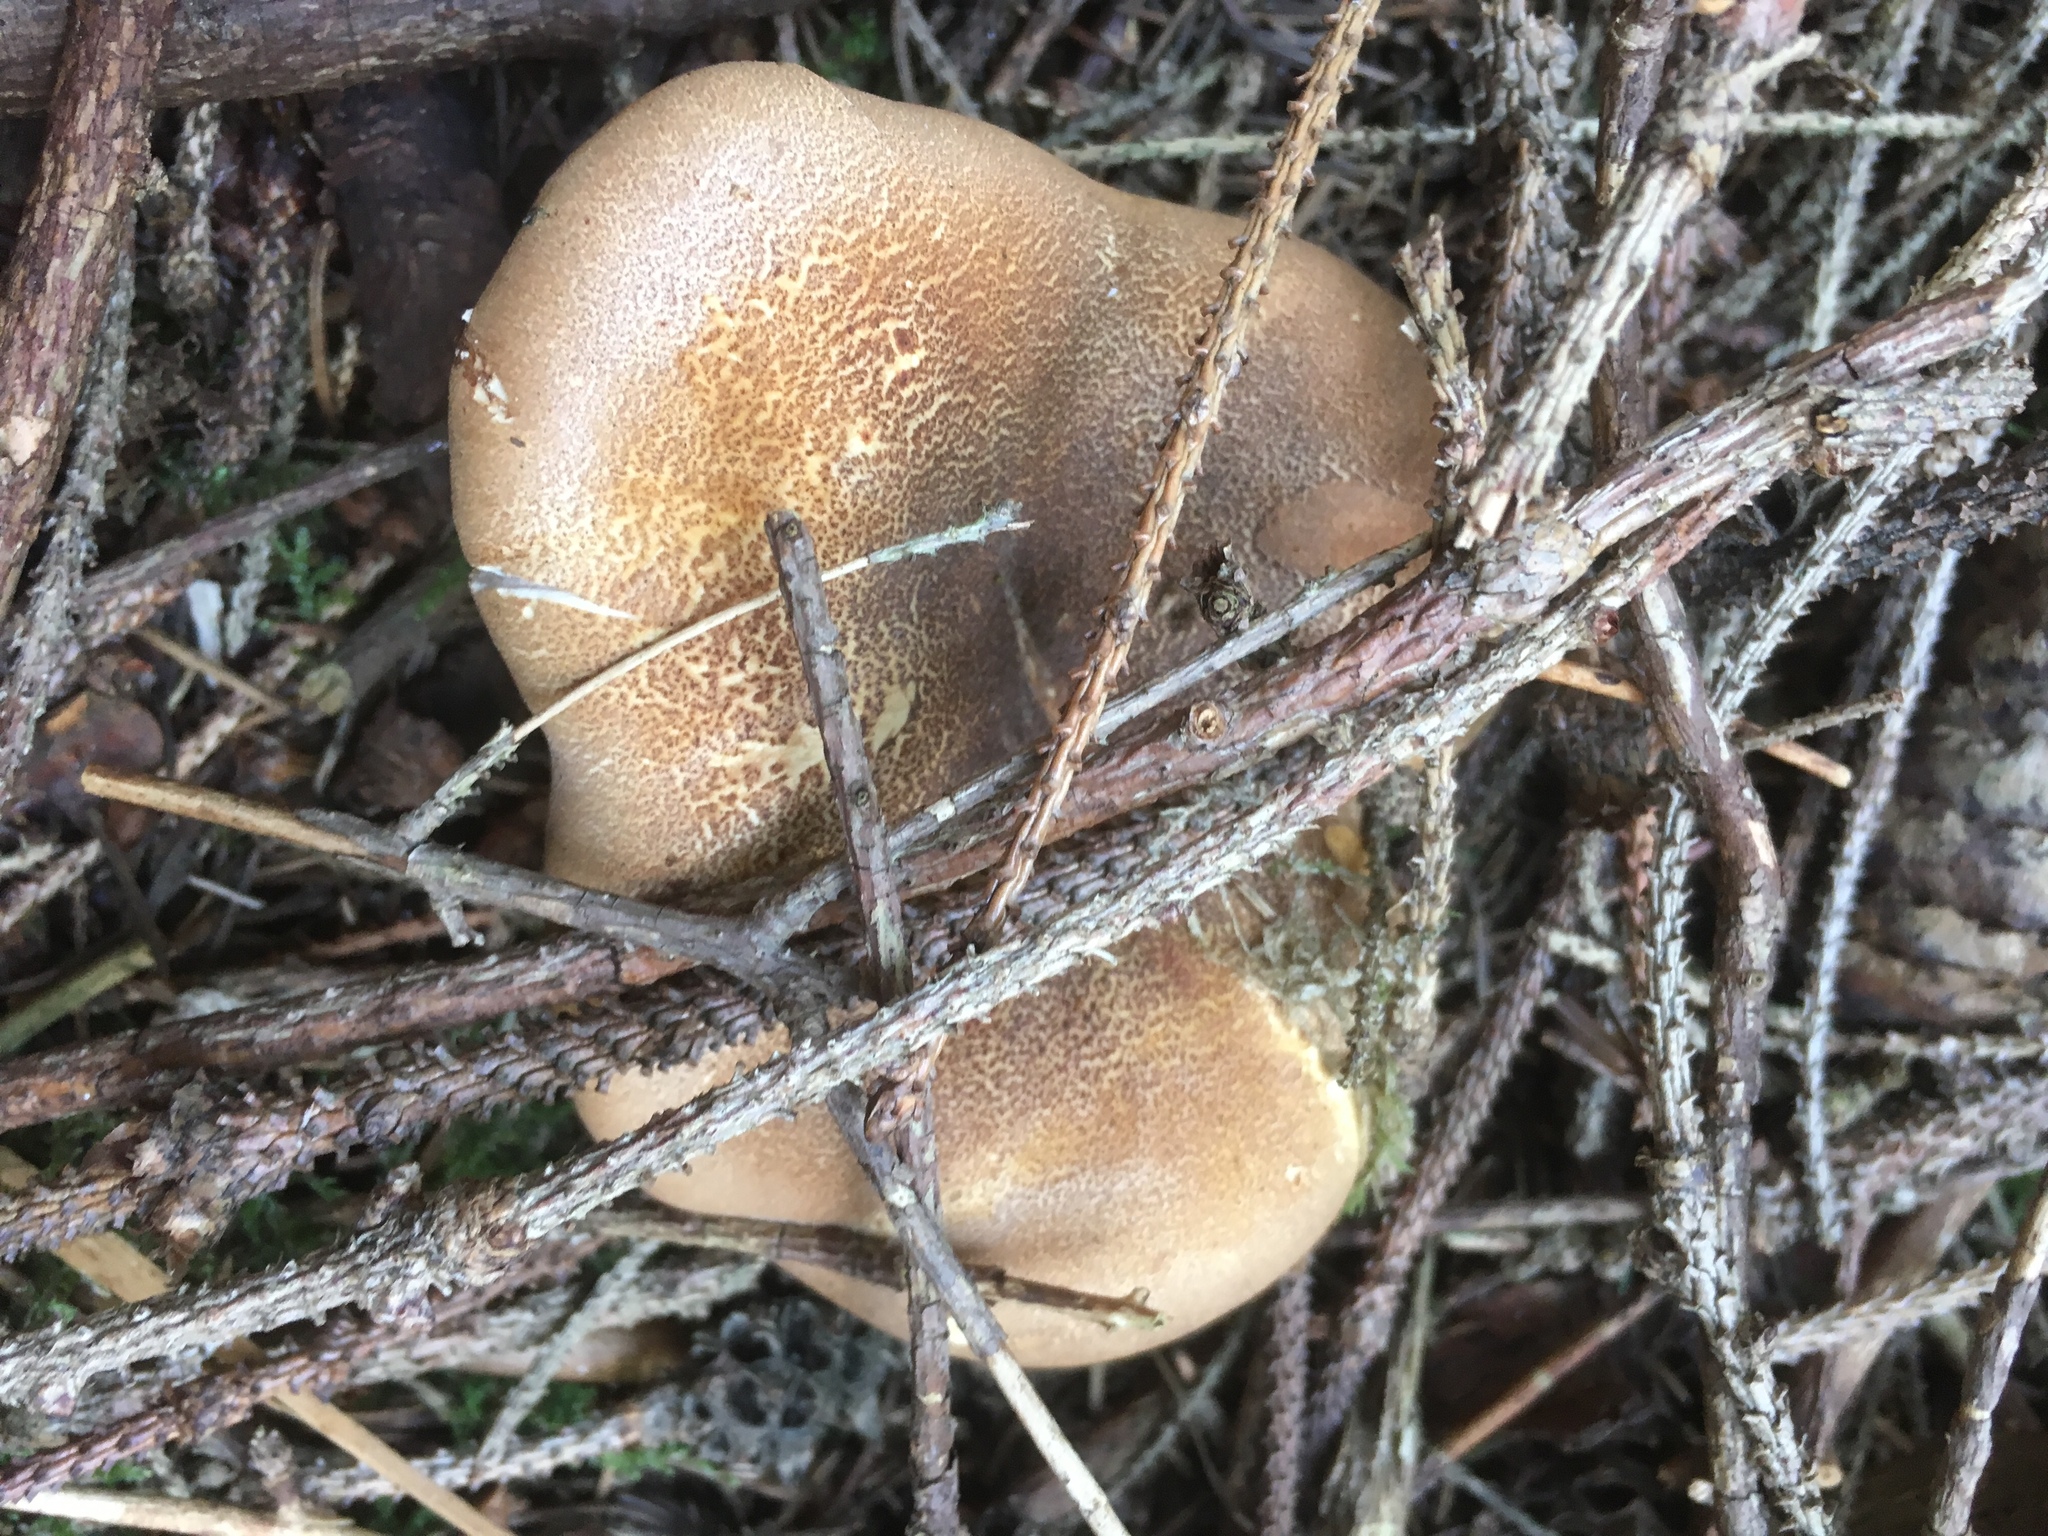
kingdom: Fungi
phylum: Basidiomycota
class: Agaricomycetes
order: Boletales
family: Tapinellaceae
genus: Tapinella
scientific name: Tapinella atrotomentosa
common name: Velvet rollrim
